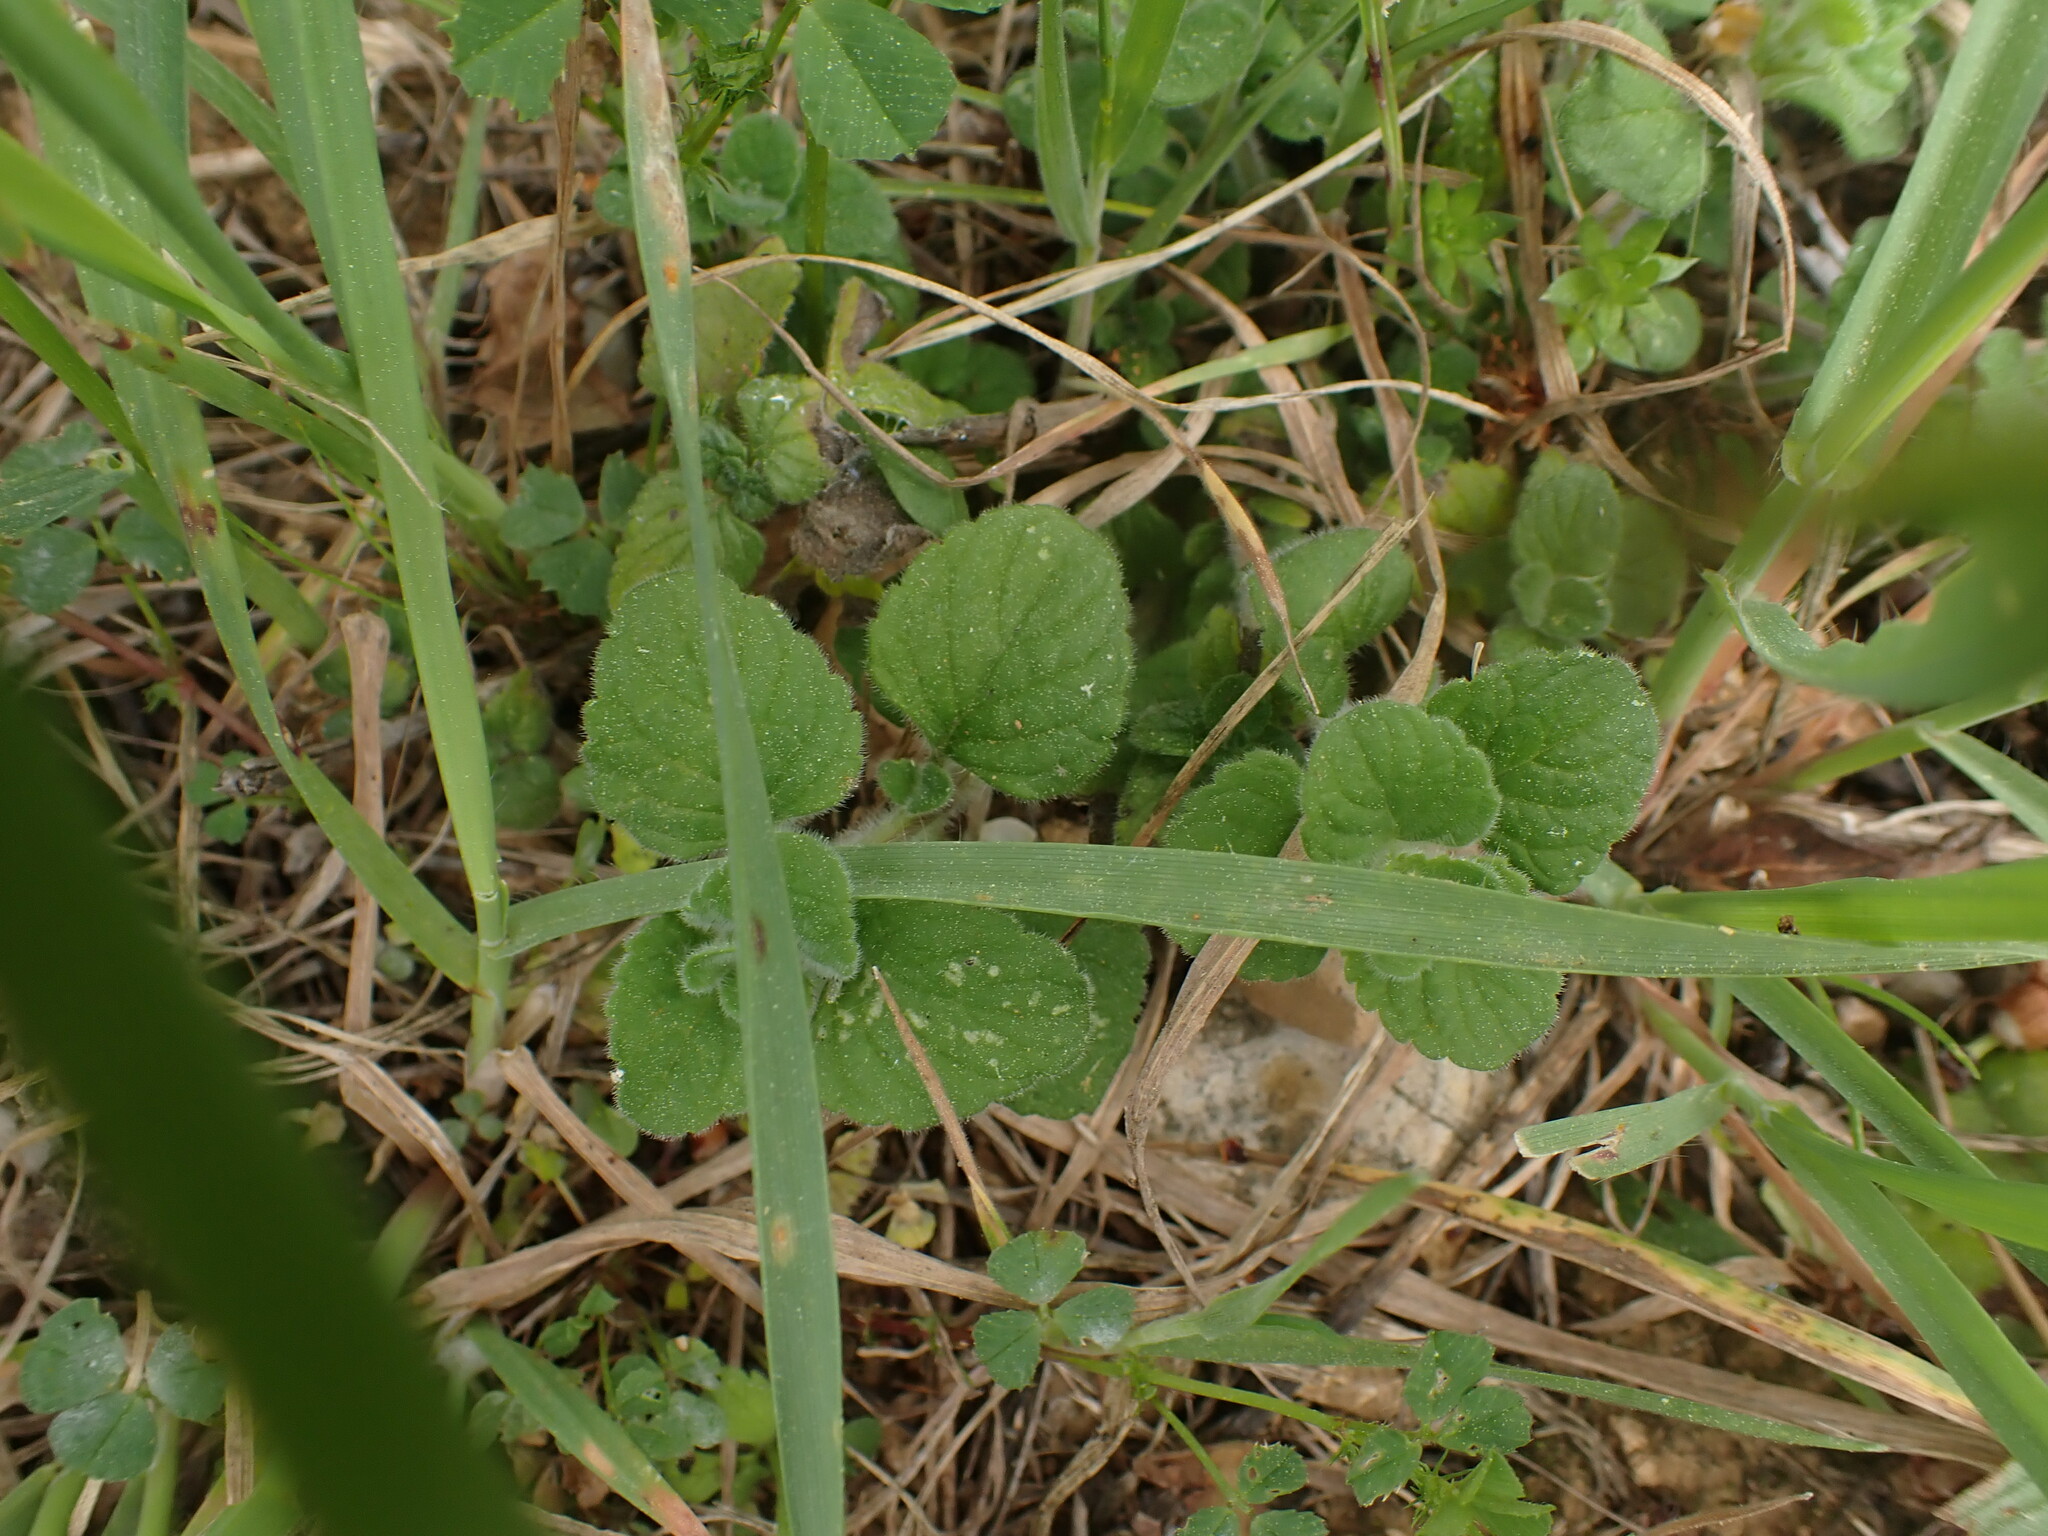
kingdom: Plantae
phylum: Tracheophyta
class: Magnoliopsida
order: Lamiales
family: Lamiaceae
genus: Clinopodium
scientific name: Clinopodium nepeta
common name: Lesser calamint
